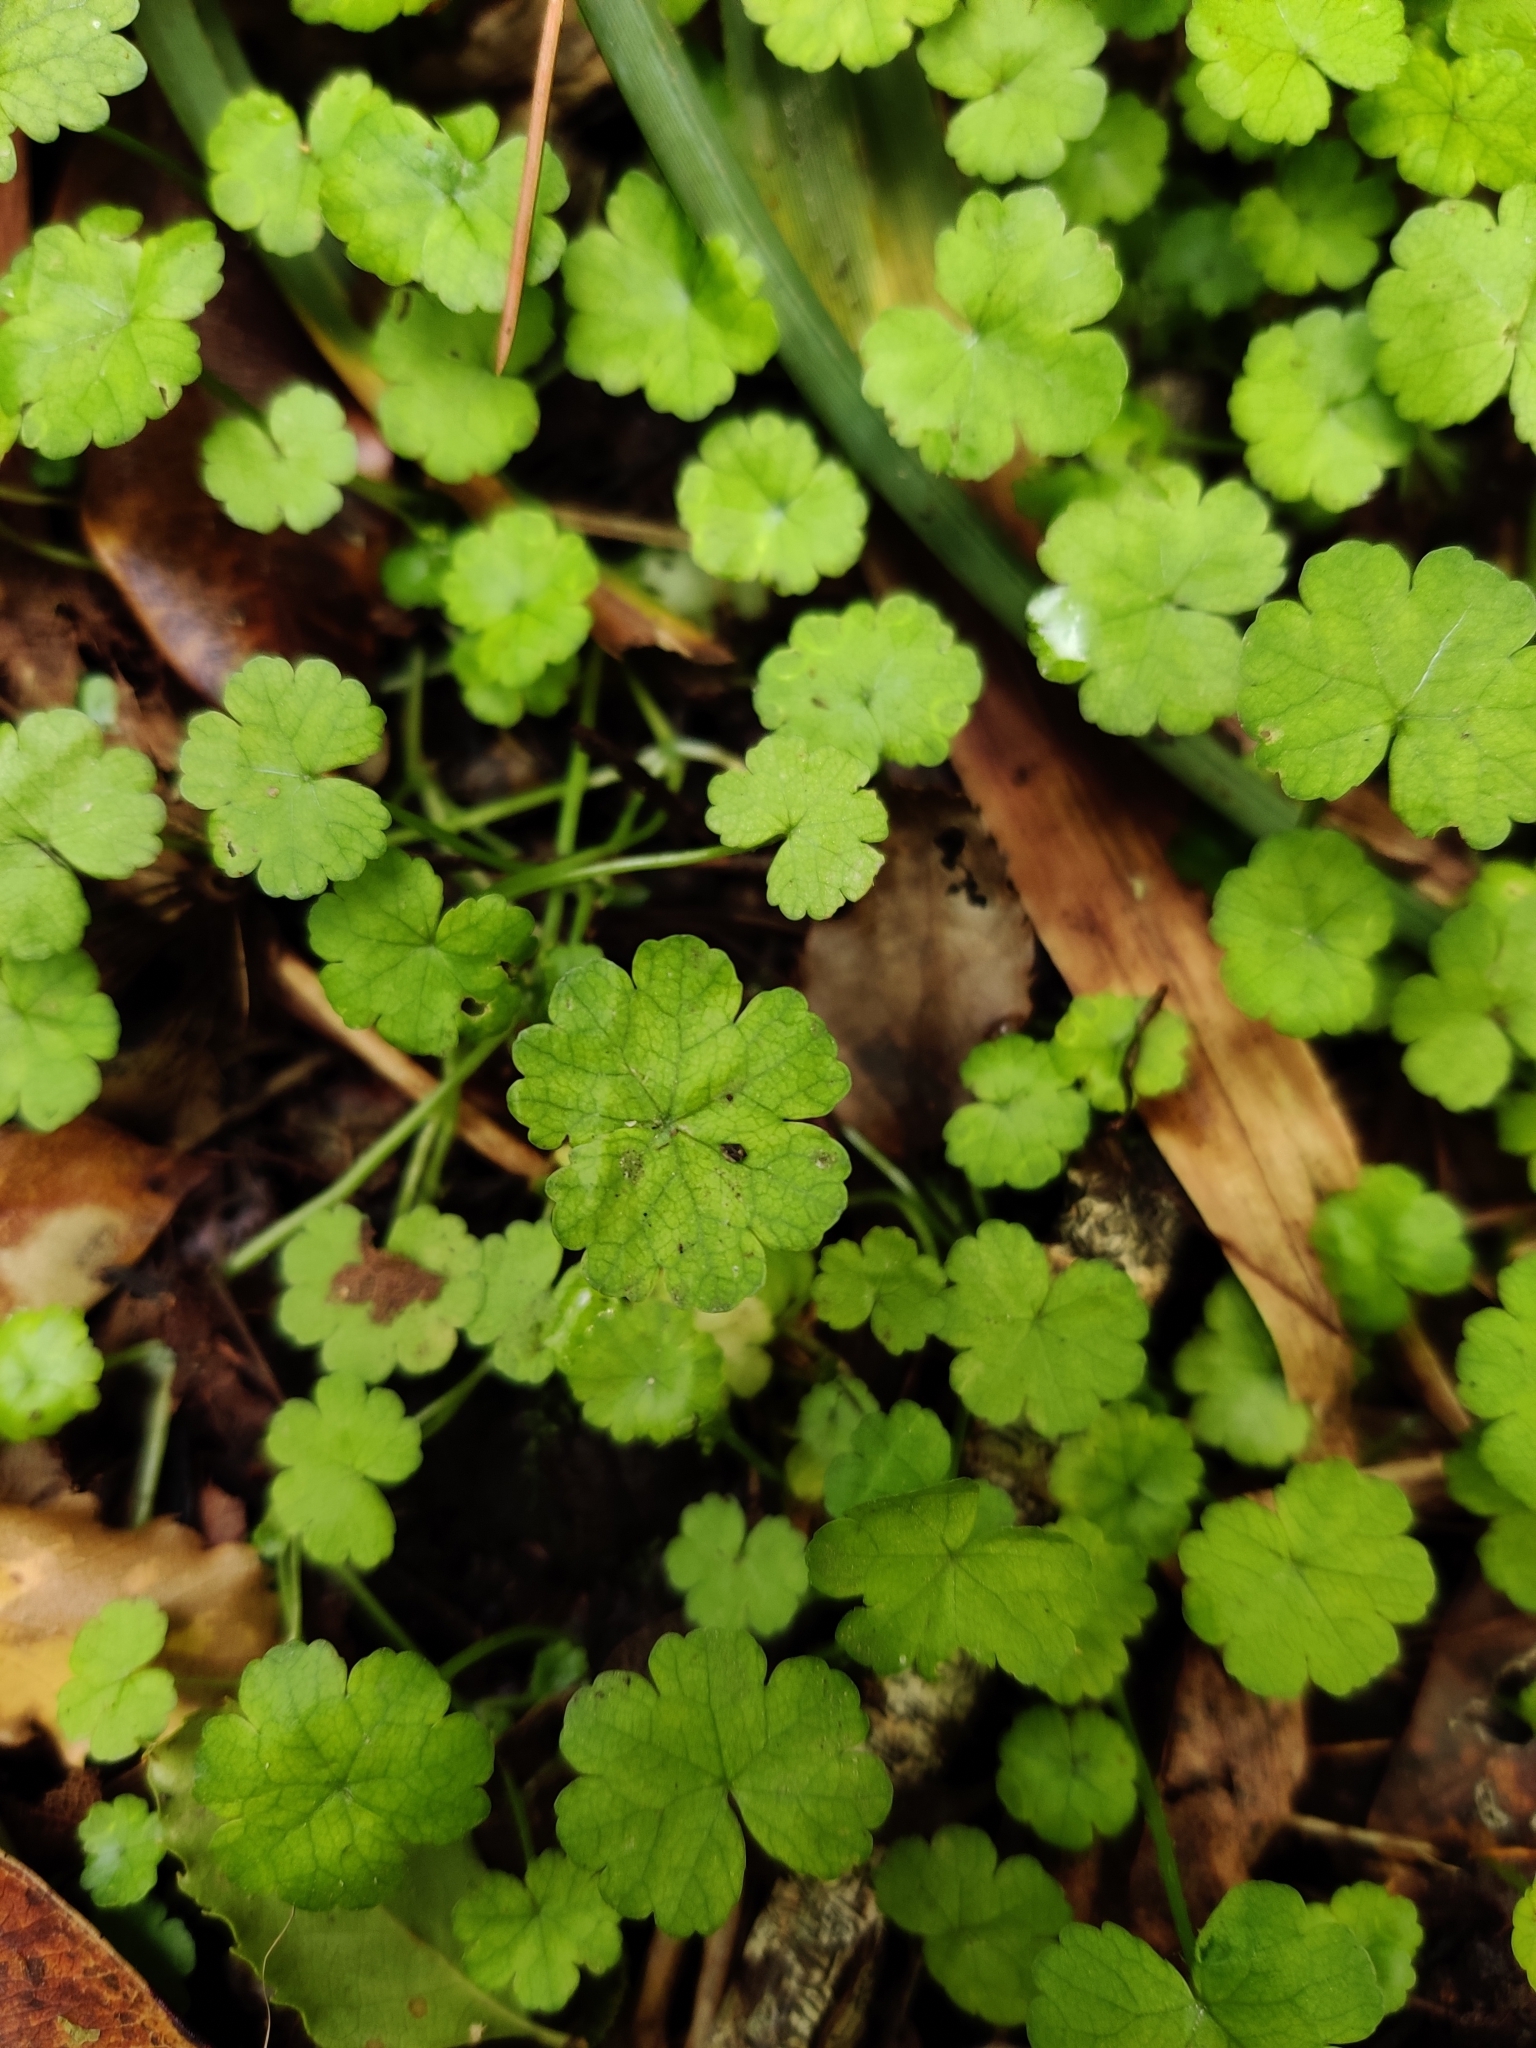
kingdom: Plantae
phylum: Tracheophyta
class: Magnoliopsida
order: Apiales
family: Araliaceae
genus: Hydrocotyle
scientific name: Hydrocotyle heteromeria
